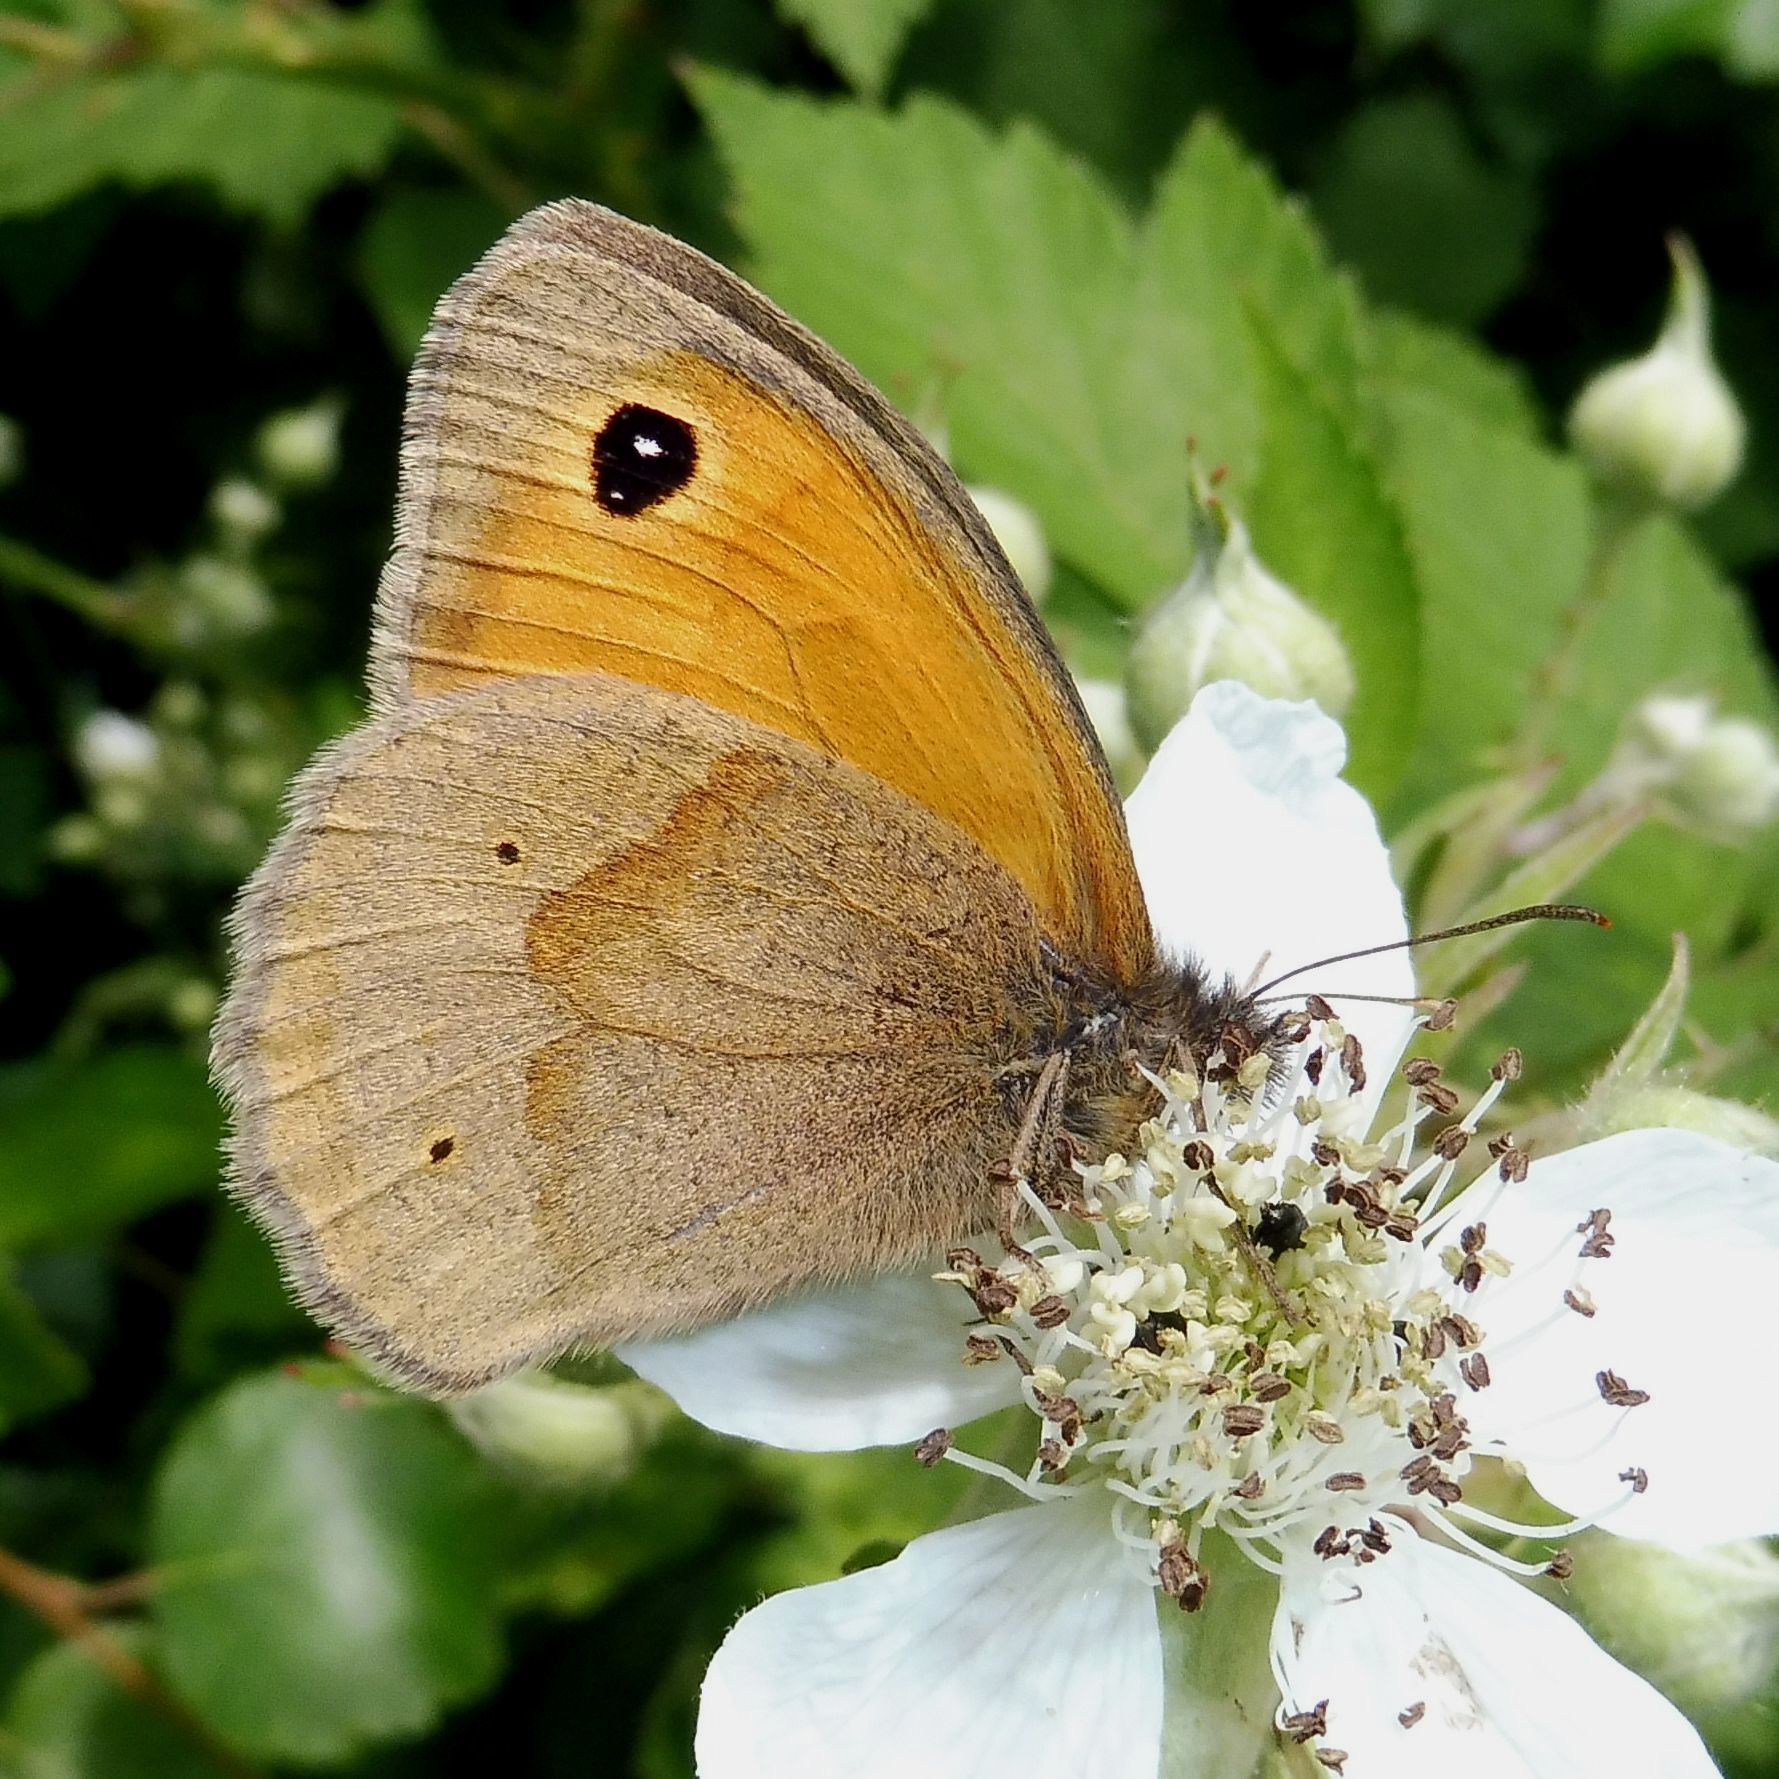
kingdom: Animalia
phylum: Arthropoda
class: Insecta
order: Lepidoptera
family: Nymphalidae
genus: Maniola
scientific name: Maniola jurtina
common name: Meadow brown
